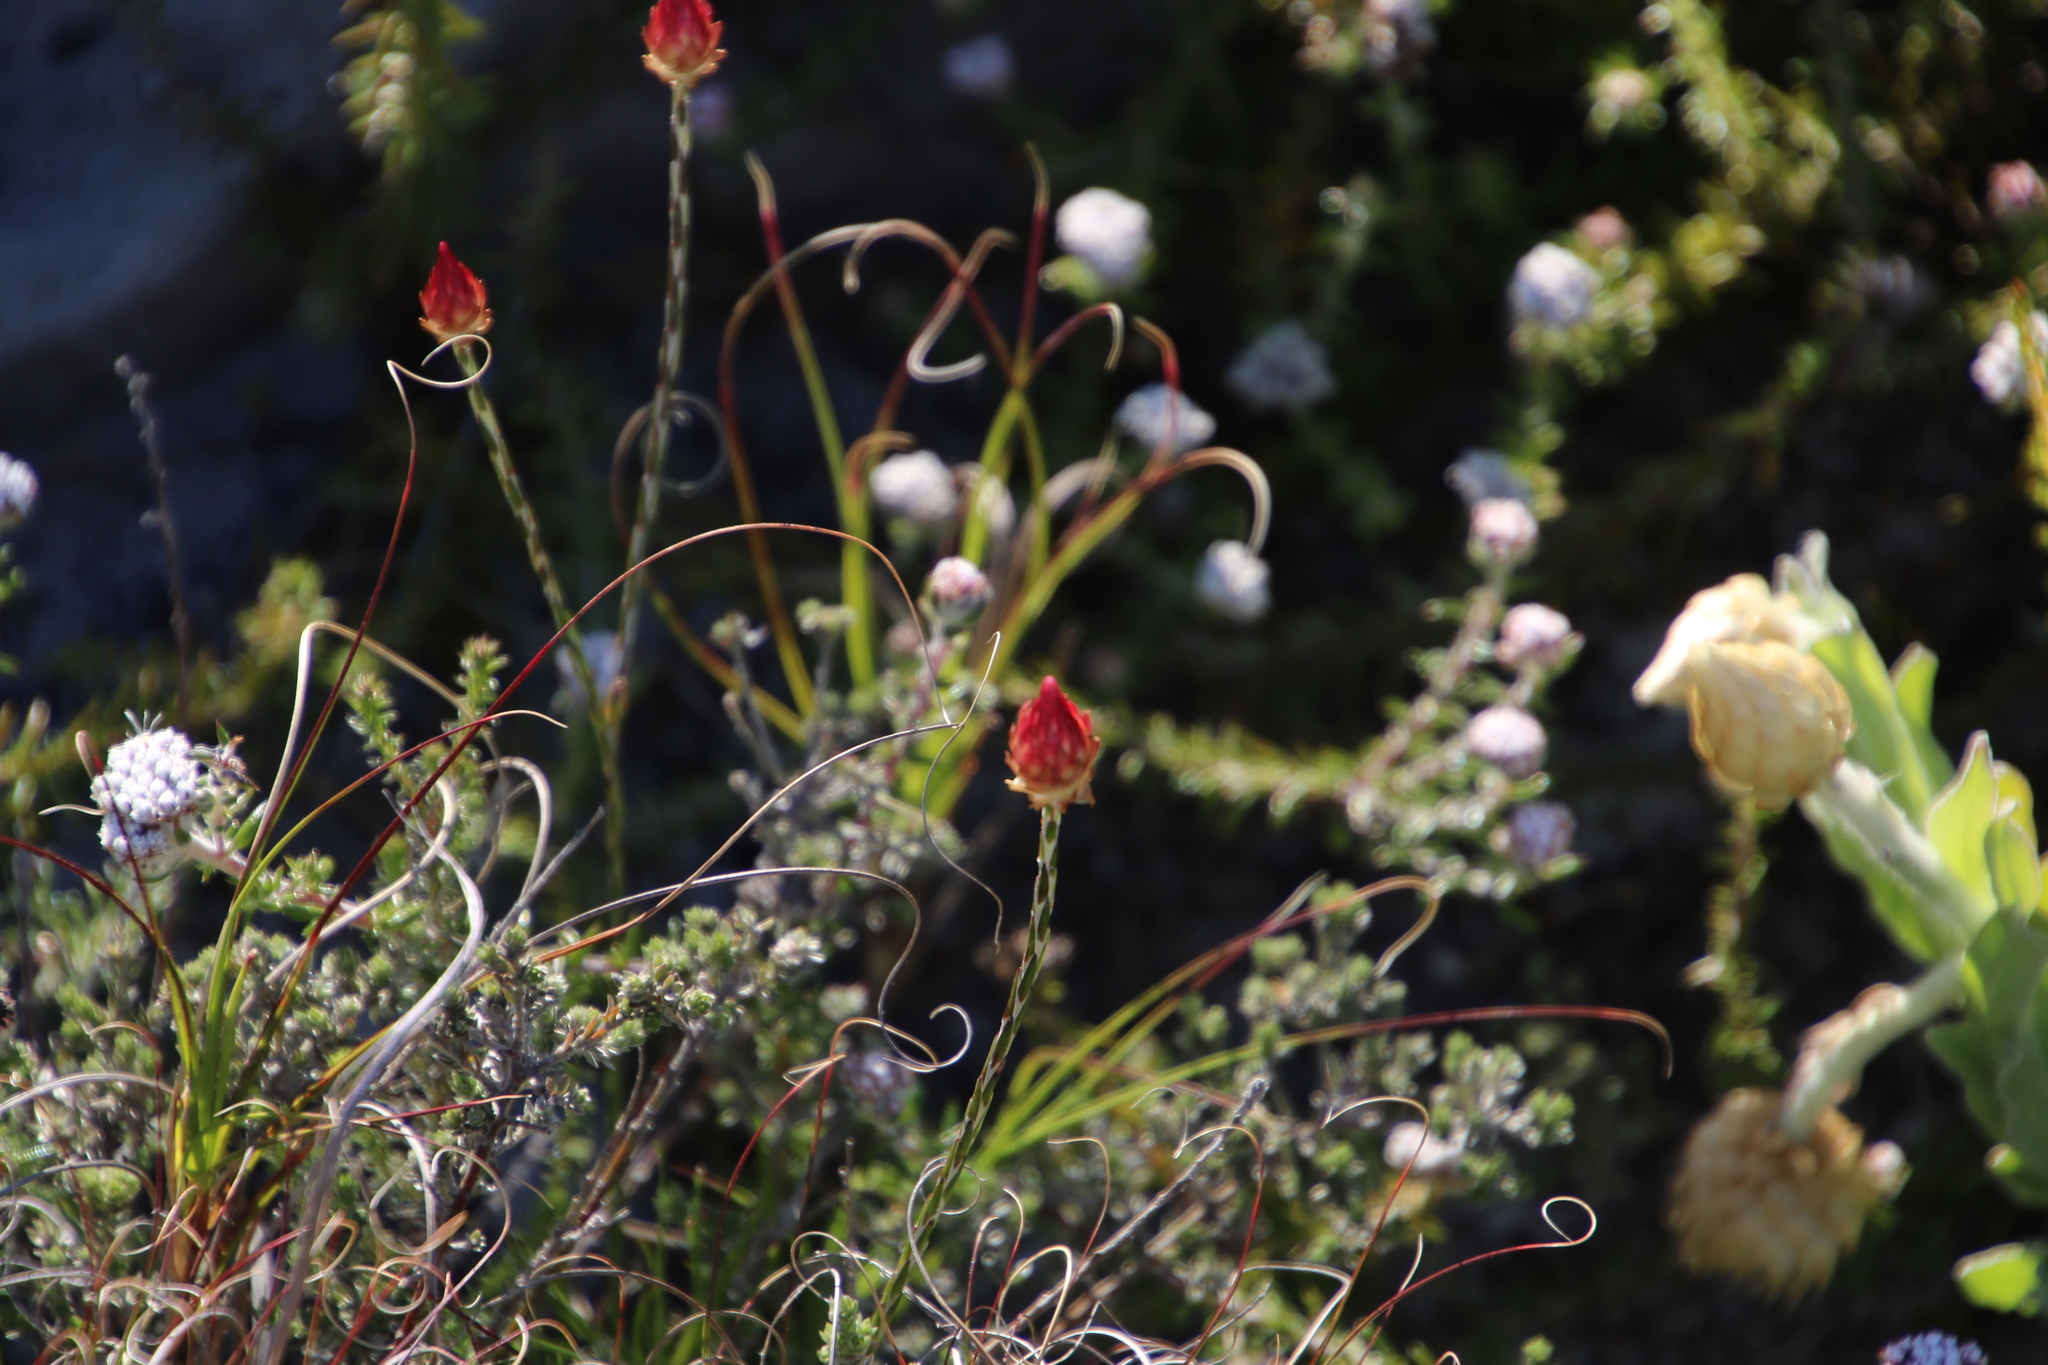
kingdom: Plantae
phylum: Tracheophyta
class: Magnoliopsida
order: Asterales
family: Asteraceae
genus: Edmondia
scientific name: Edmondia sesamoides
